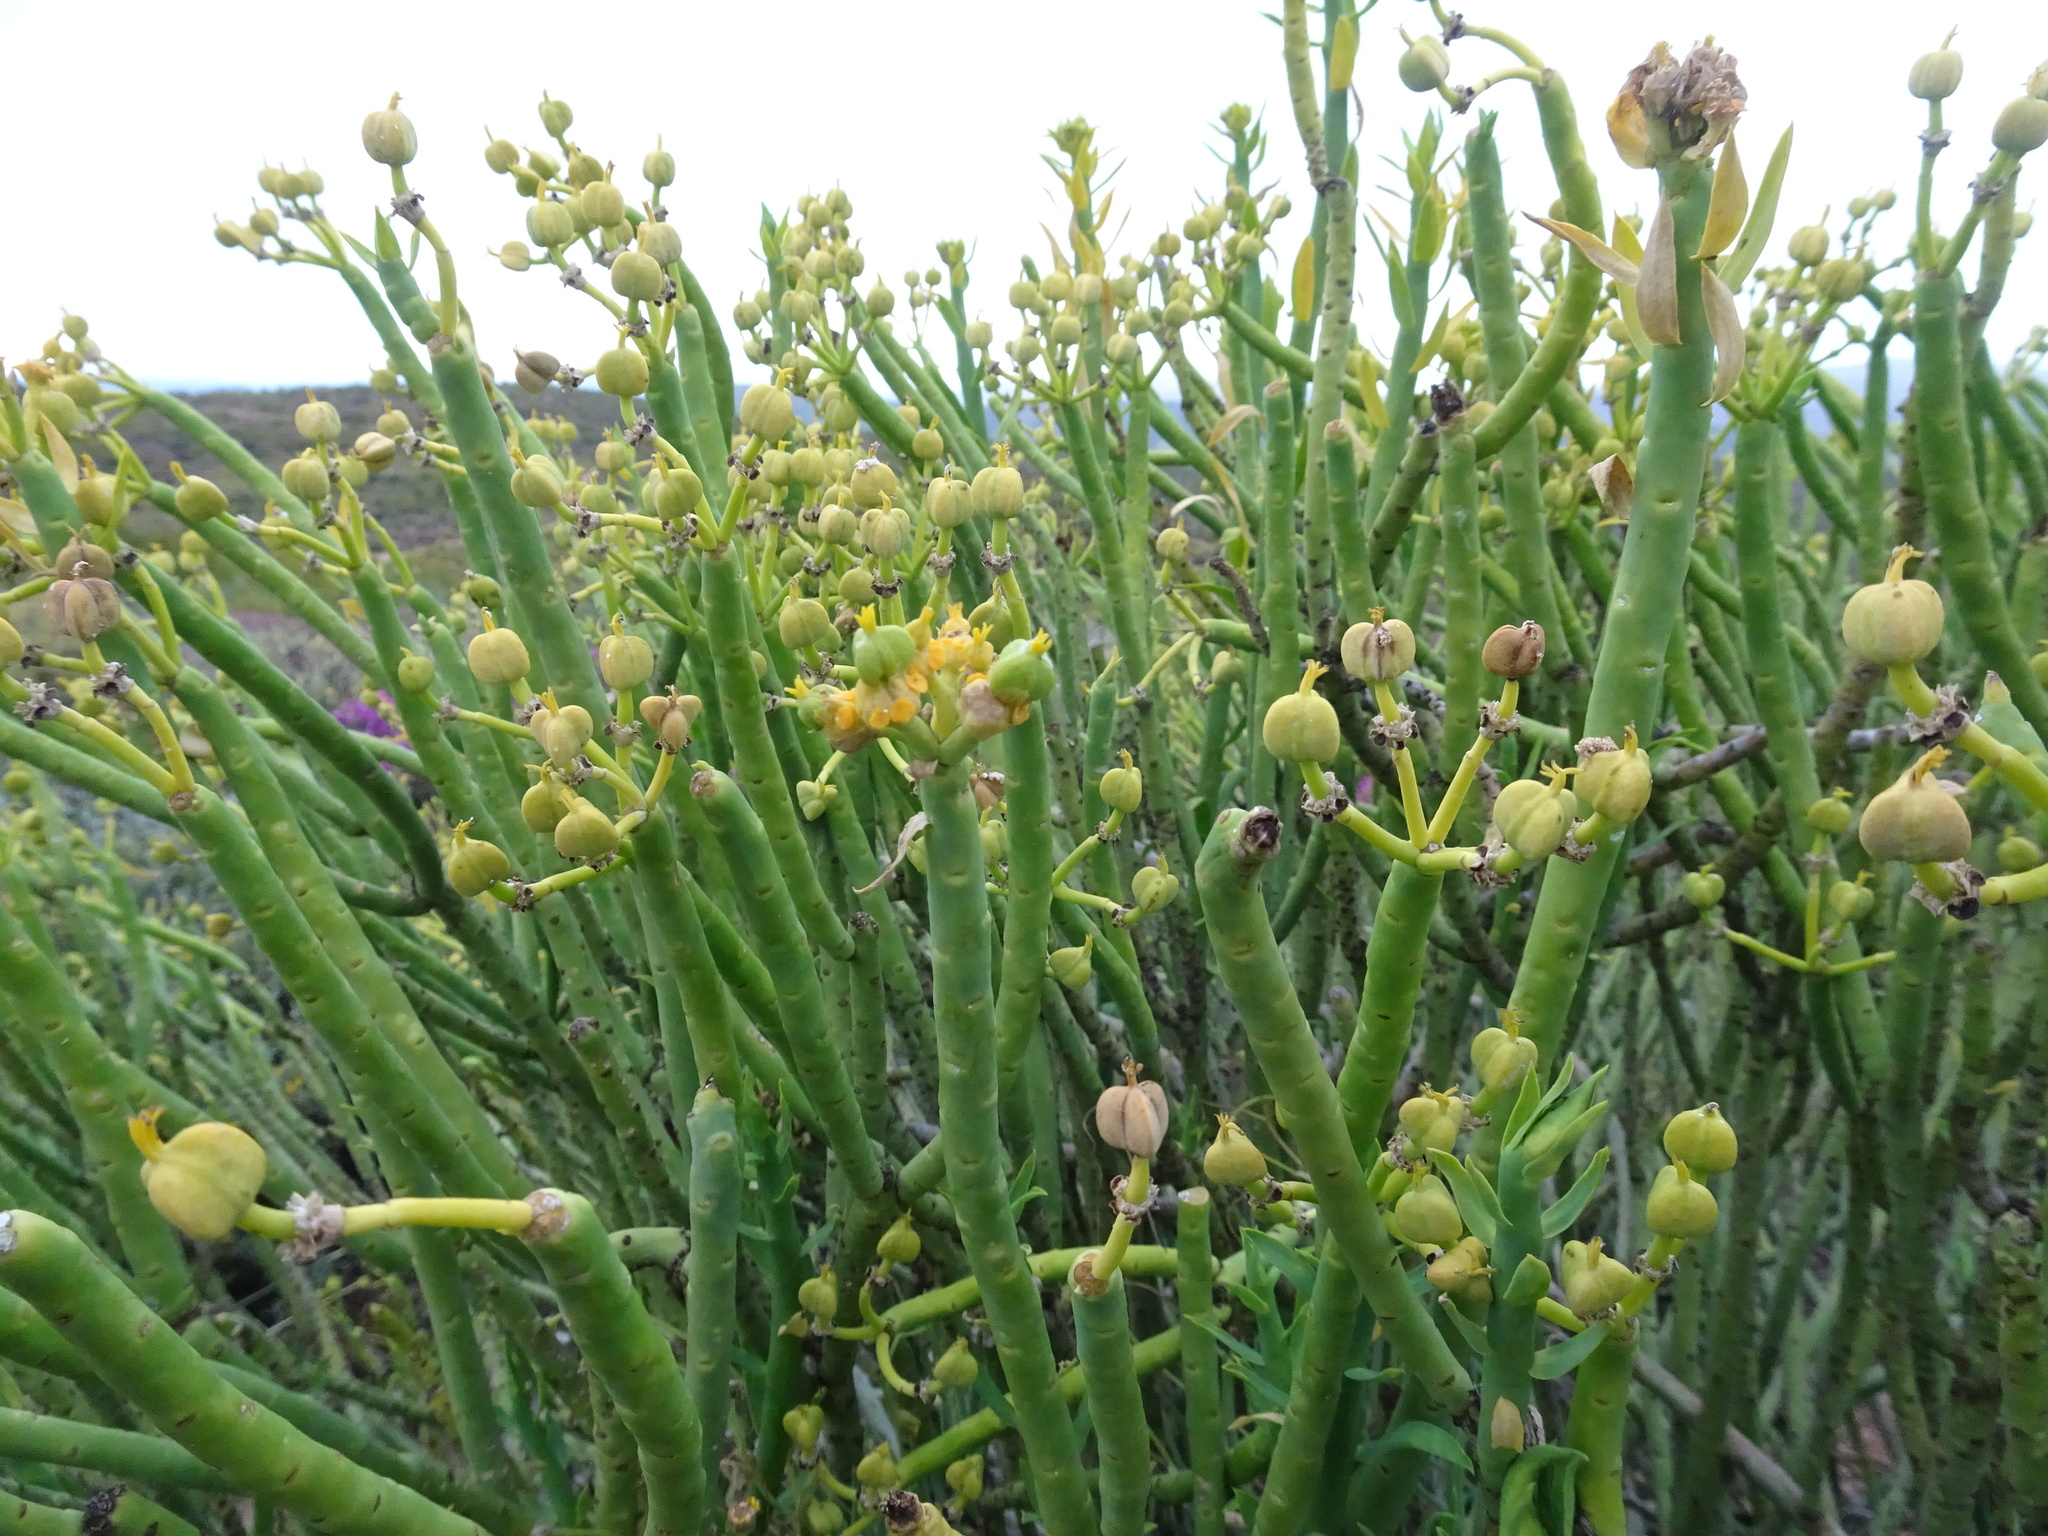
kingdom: Plantae
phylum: Tracheophyta
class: Magnoliopsida
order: Malpighiales
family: Euphorbiaceae
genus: Euphorbia
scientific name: Euphorbia mauritanica
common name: Jackal's-food
